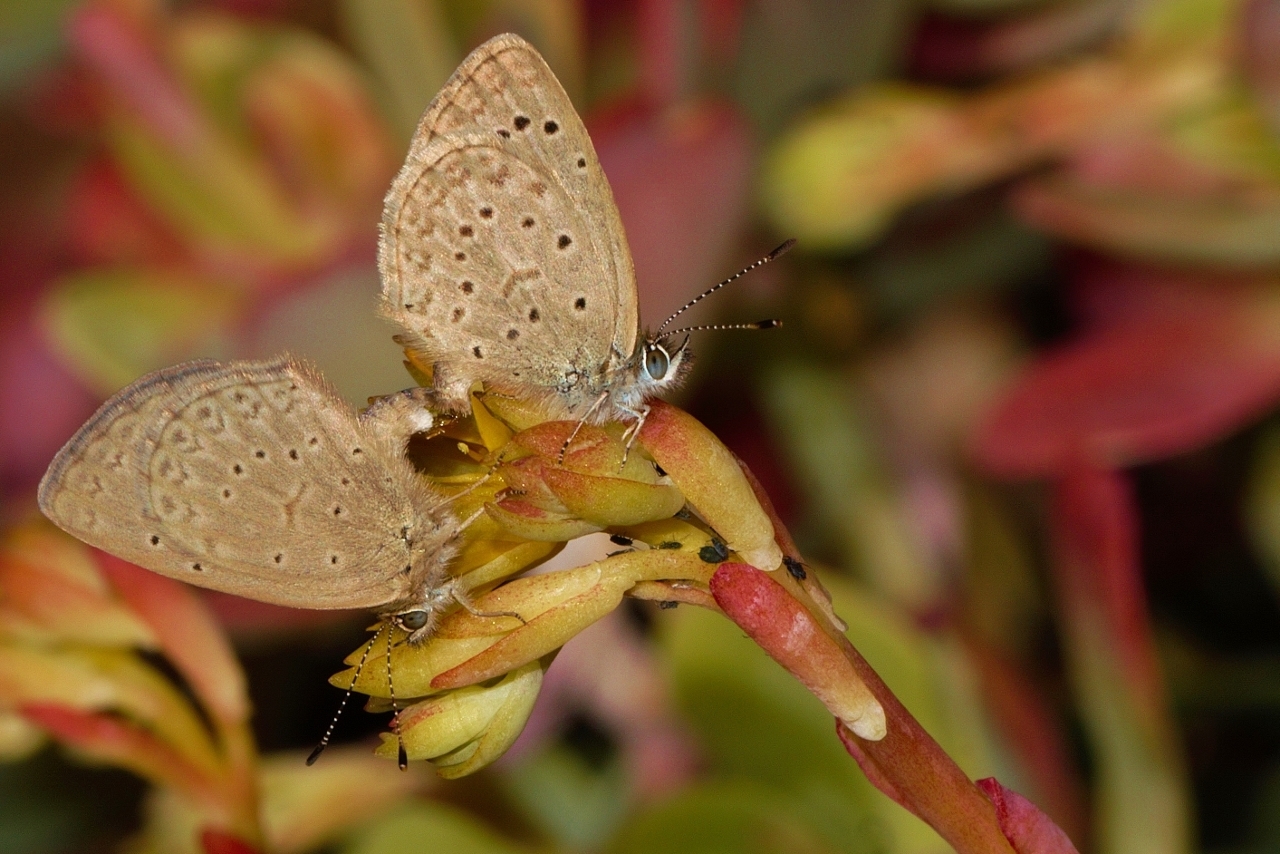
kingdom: Animalia
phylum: Arthropoda
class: Insecta
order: Lepidoptera
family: Lycaenidae
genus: Zizeeria
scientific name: Zizeeria knysna
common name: African grass blue
